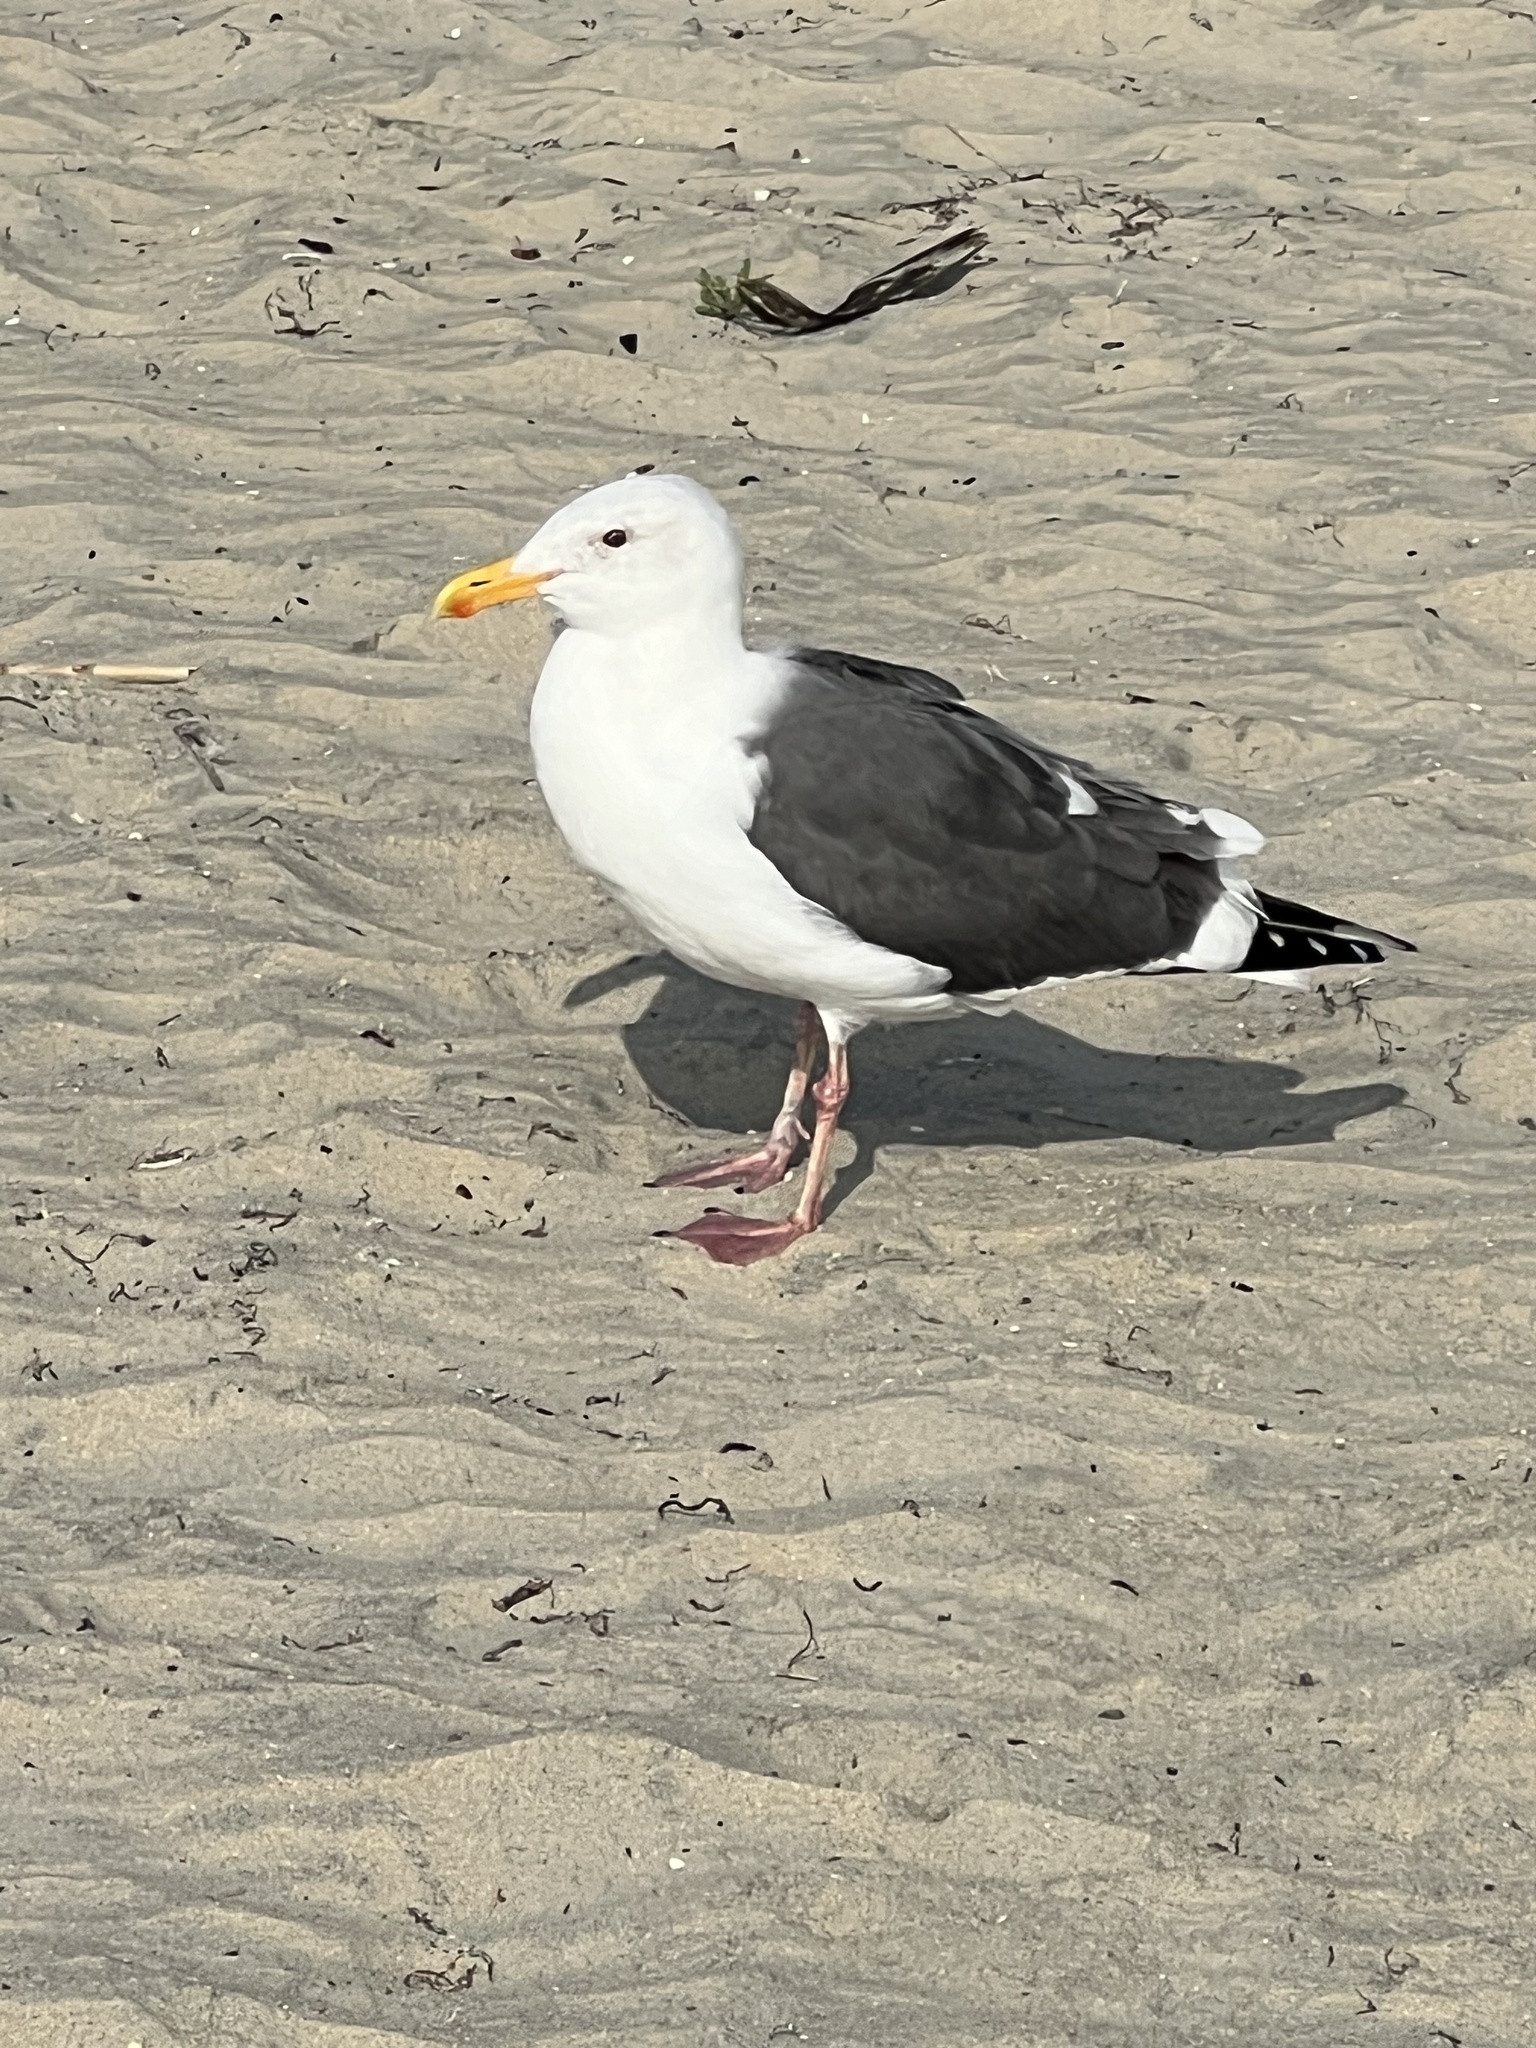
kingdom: Animalia
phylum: Chordata
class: Aves
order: Charadriiformes
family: Laridae
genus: Larus
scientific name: Larus occidentalis
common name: Western gull
